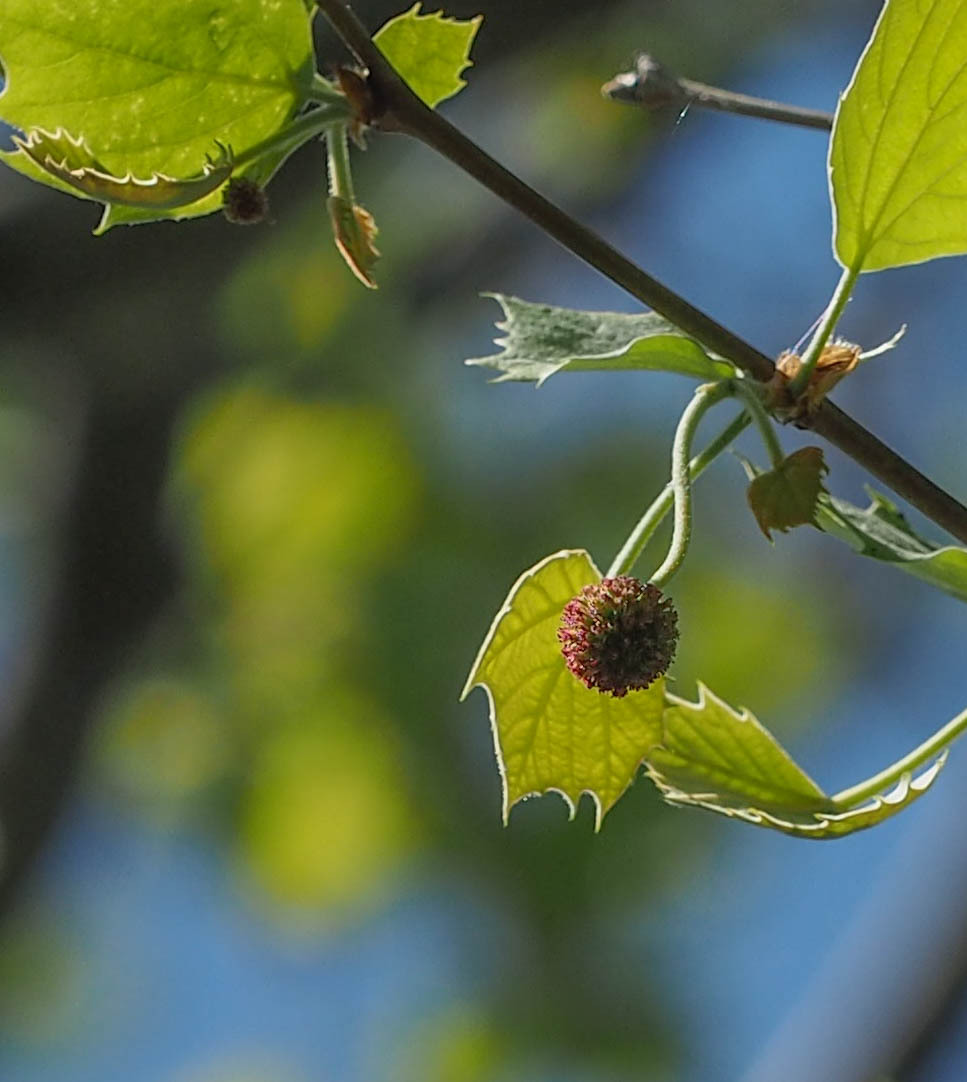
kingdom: Plantae
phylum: Tracheophyta
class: Magnoliopsida
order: Proteales
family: Platanaceae
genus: Platanus
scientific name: Platanus occidentalis
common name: American sycamore
